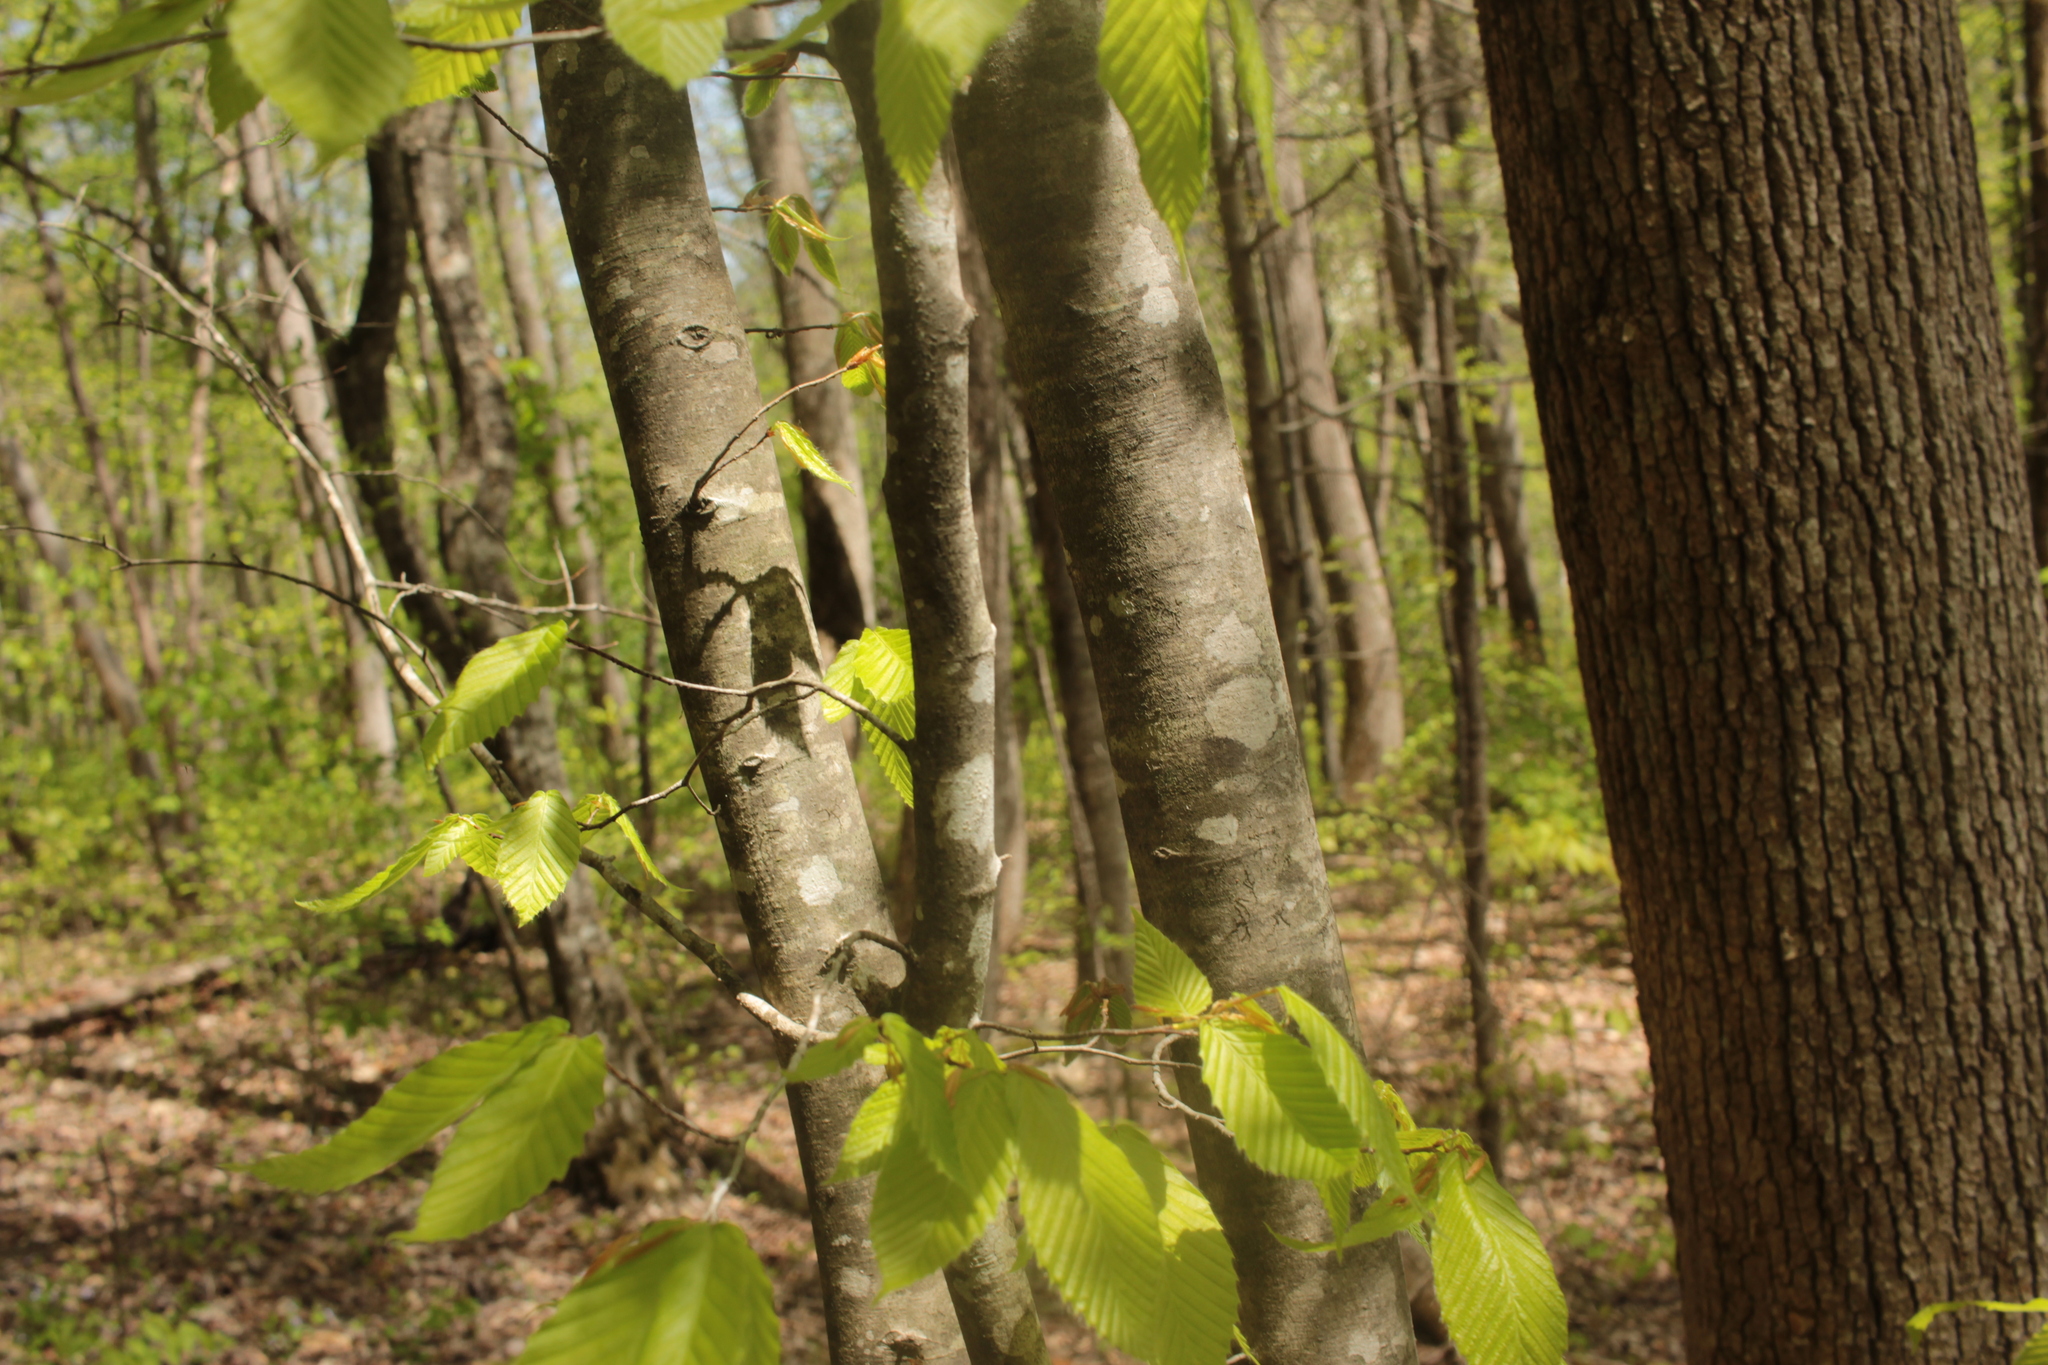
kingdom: Plantae
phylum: Tracheophyta
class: Magnoliopsida
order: Fagales
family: Fagaceae
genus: Fagus
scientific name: Fagus grandifolia
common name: American beech
